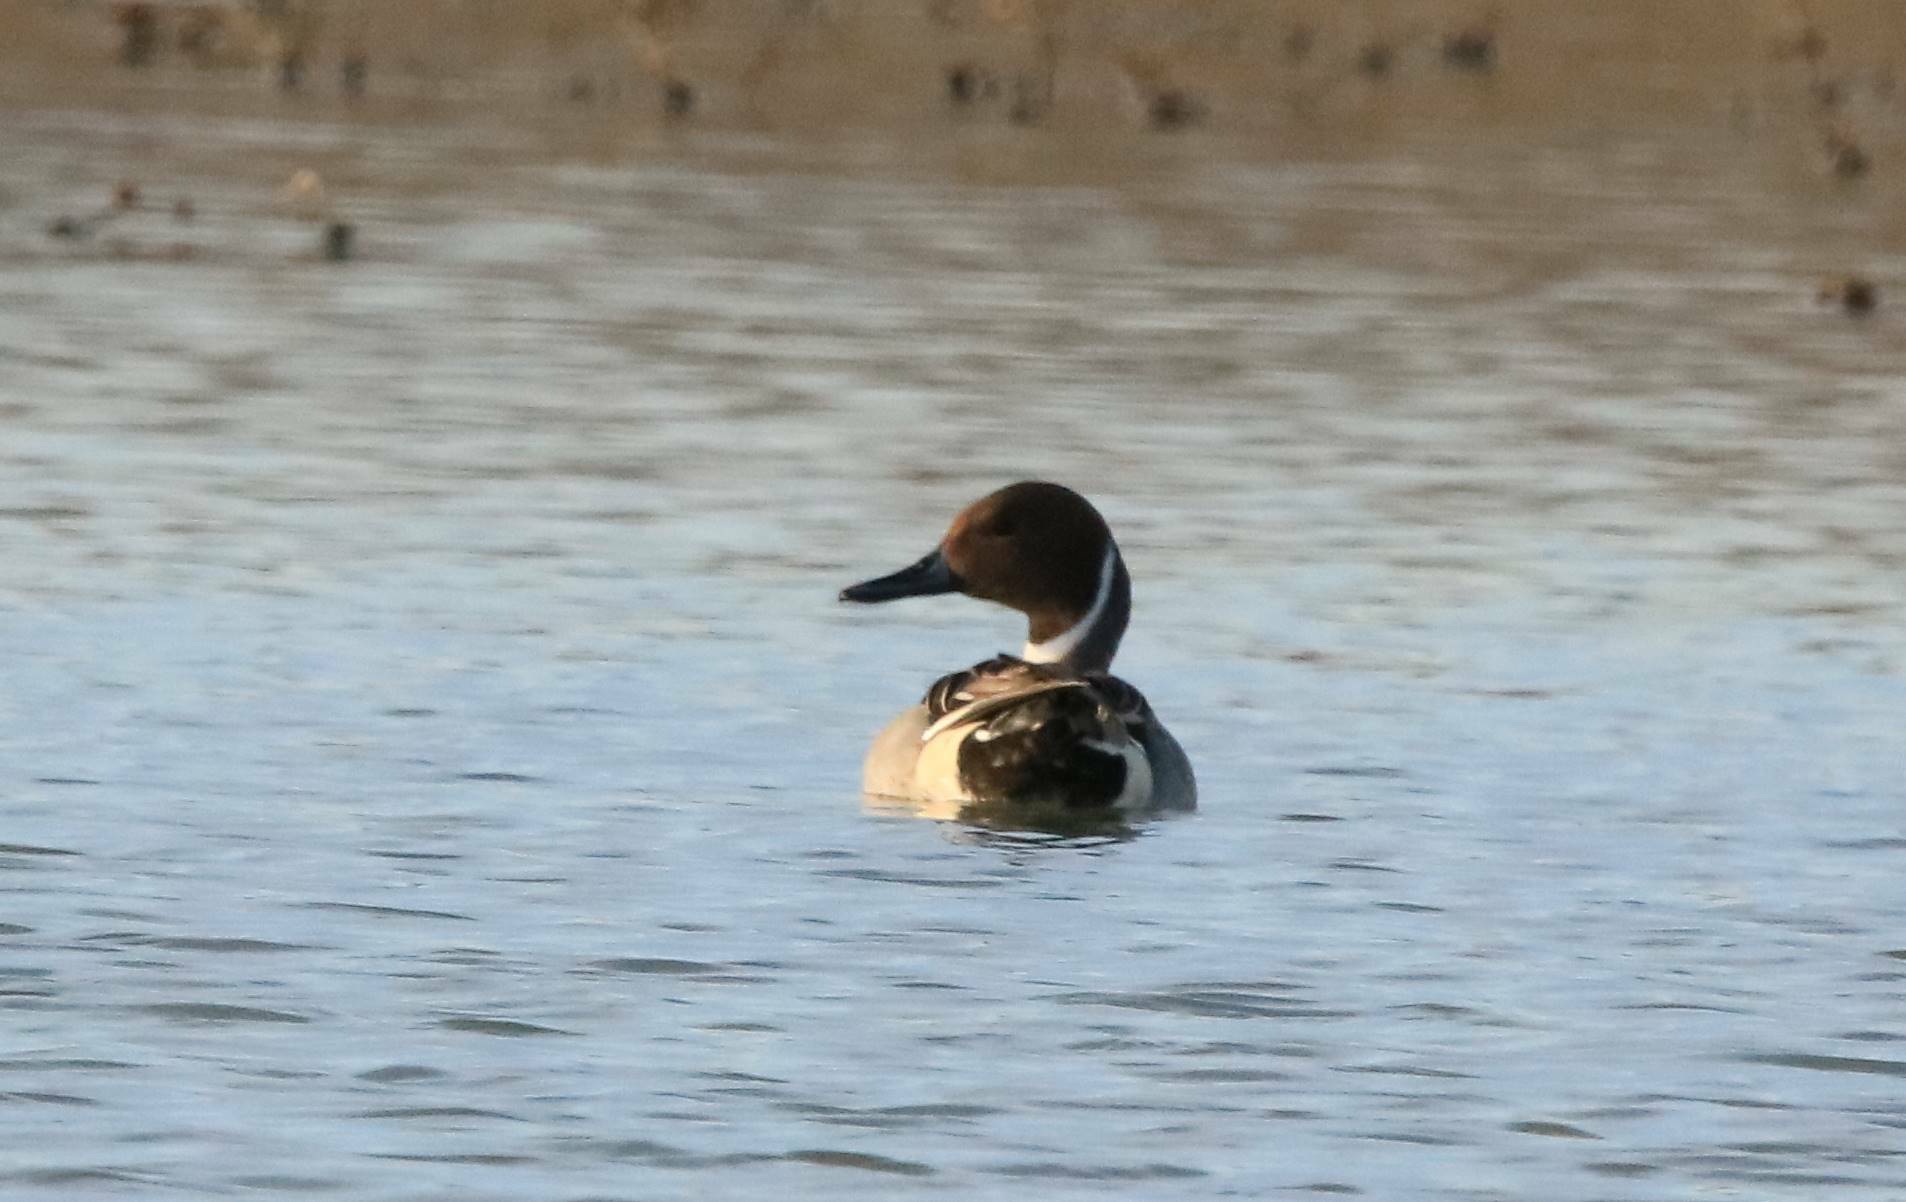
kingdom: Animalia
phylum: Chordata
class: Aves
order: Anseriformes
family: Anatidae
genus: Anas
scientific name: Anas acuta
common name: Northern pintail
